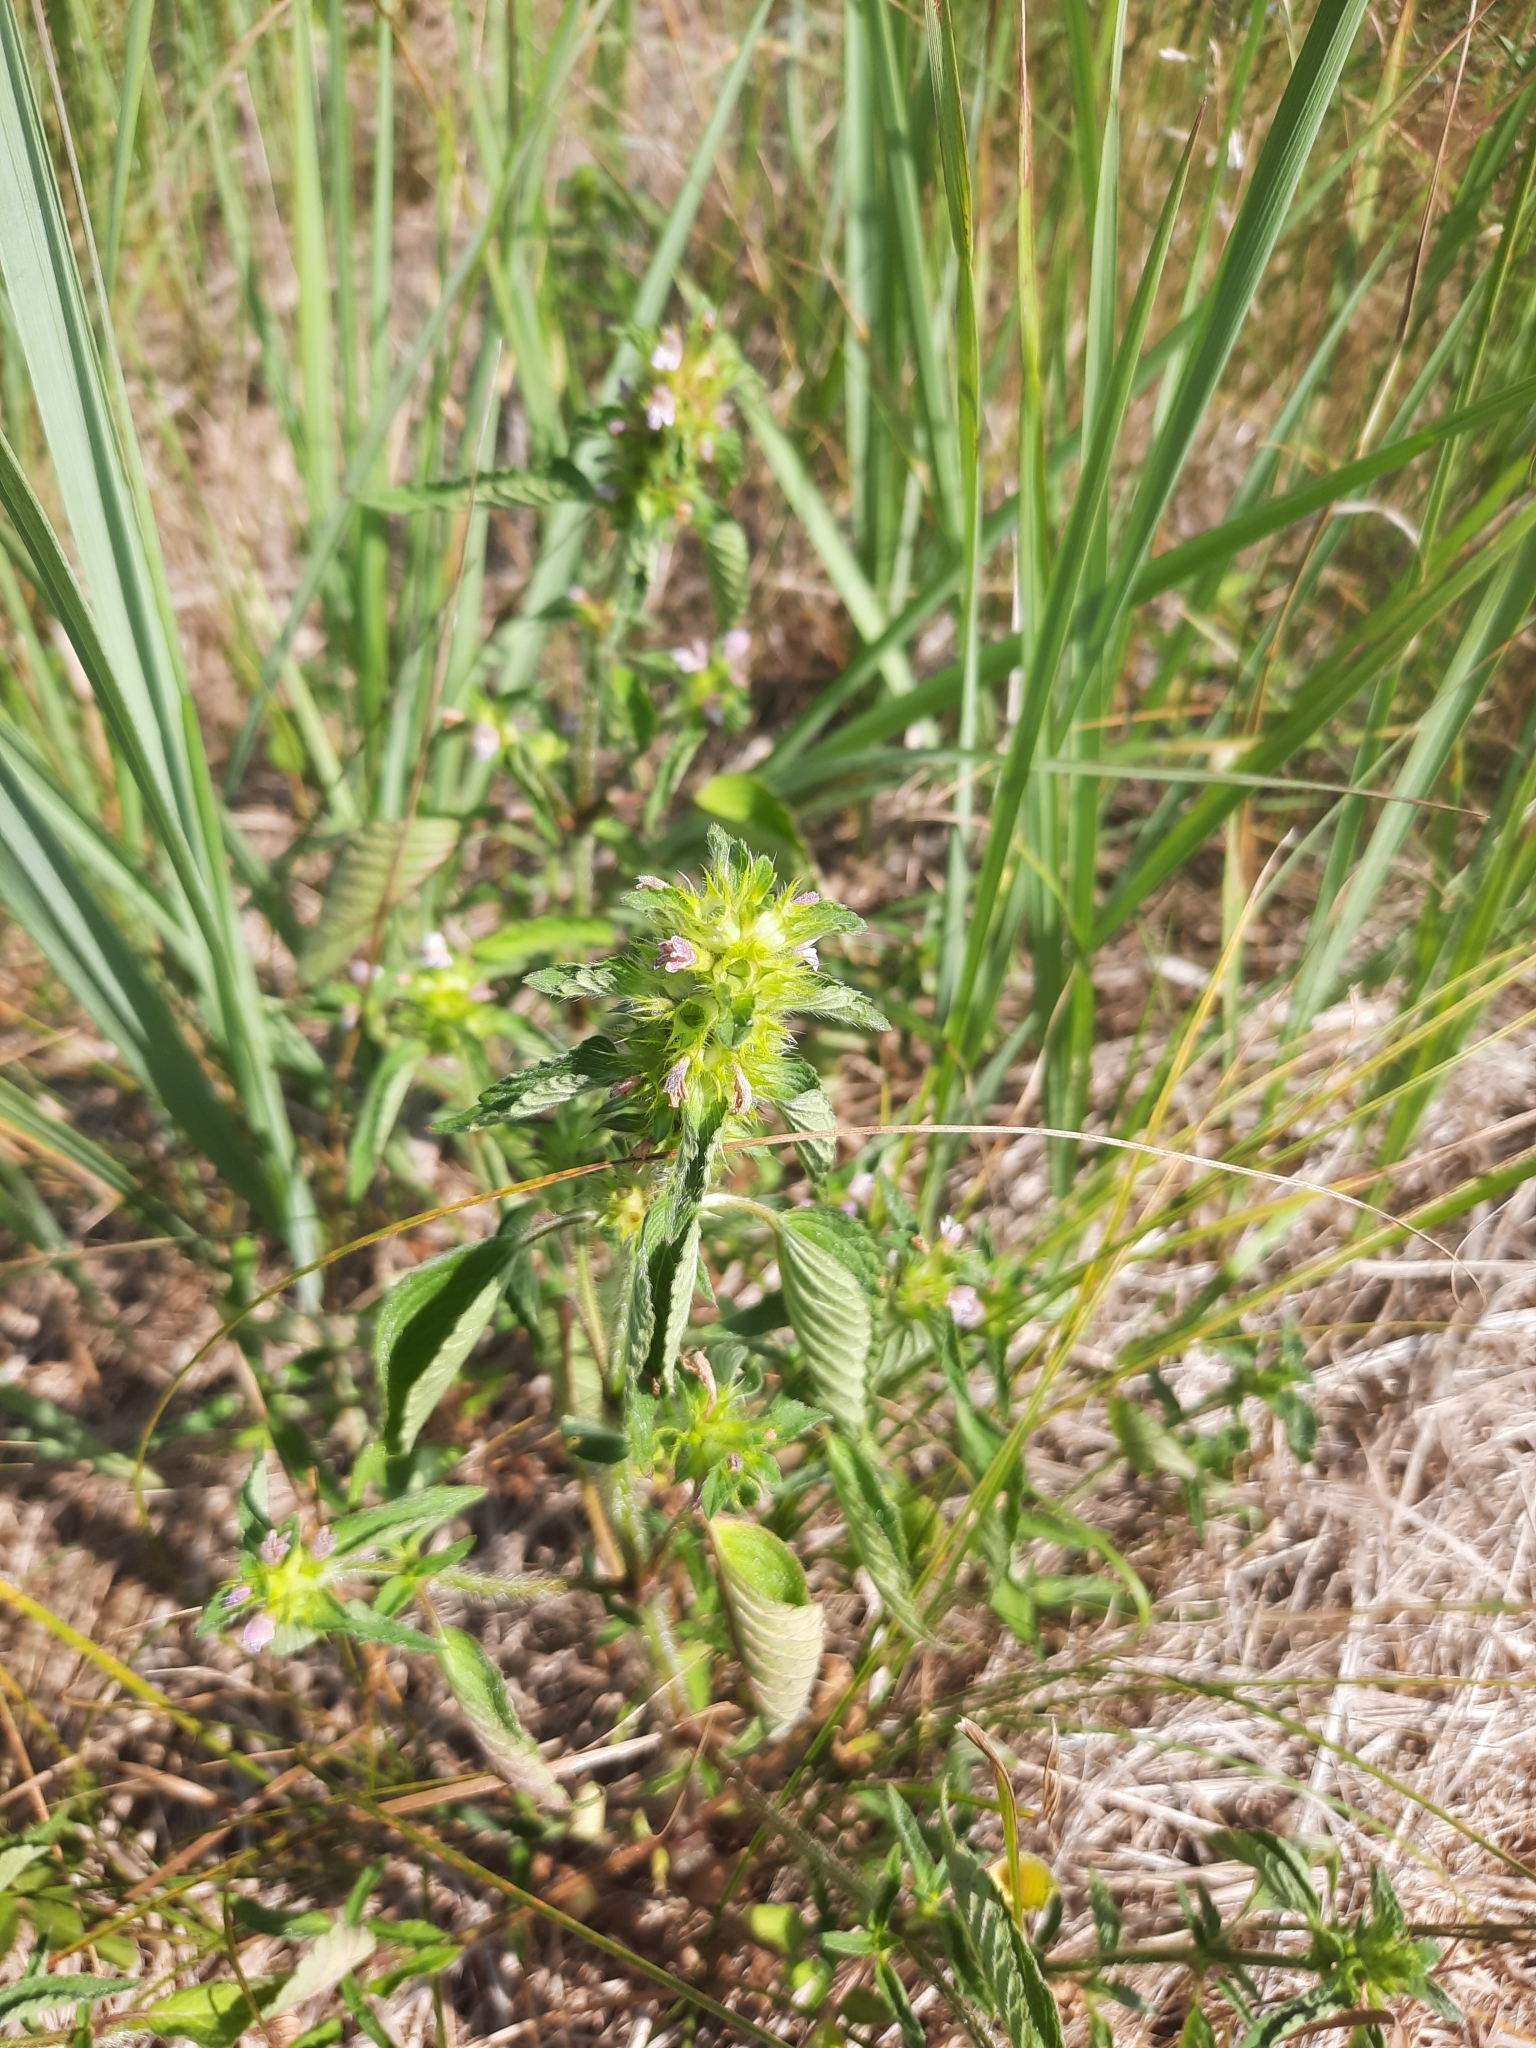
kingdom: Plantae
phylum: Tracheophyta
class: Magnoliopsida
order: Lamiales
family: Lamiaceae
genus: Galeopsis
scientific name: Galeopsis bifida
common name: Bifid hemp-nettle
